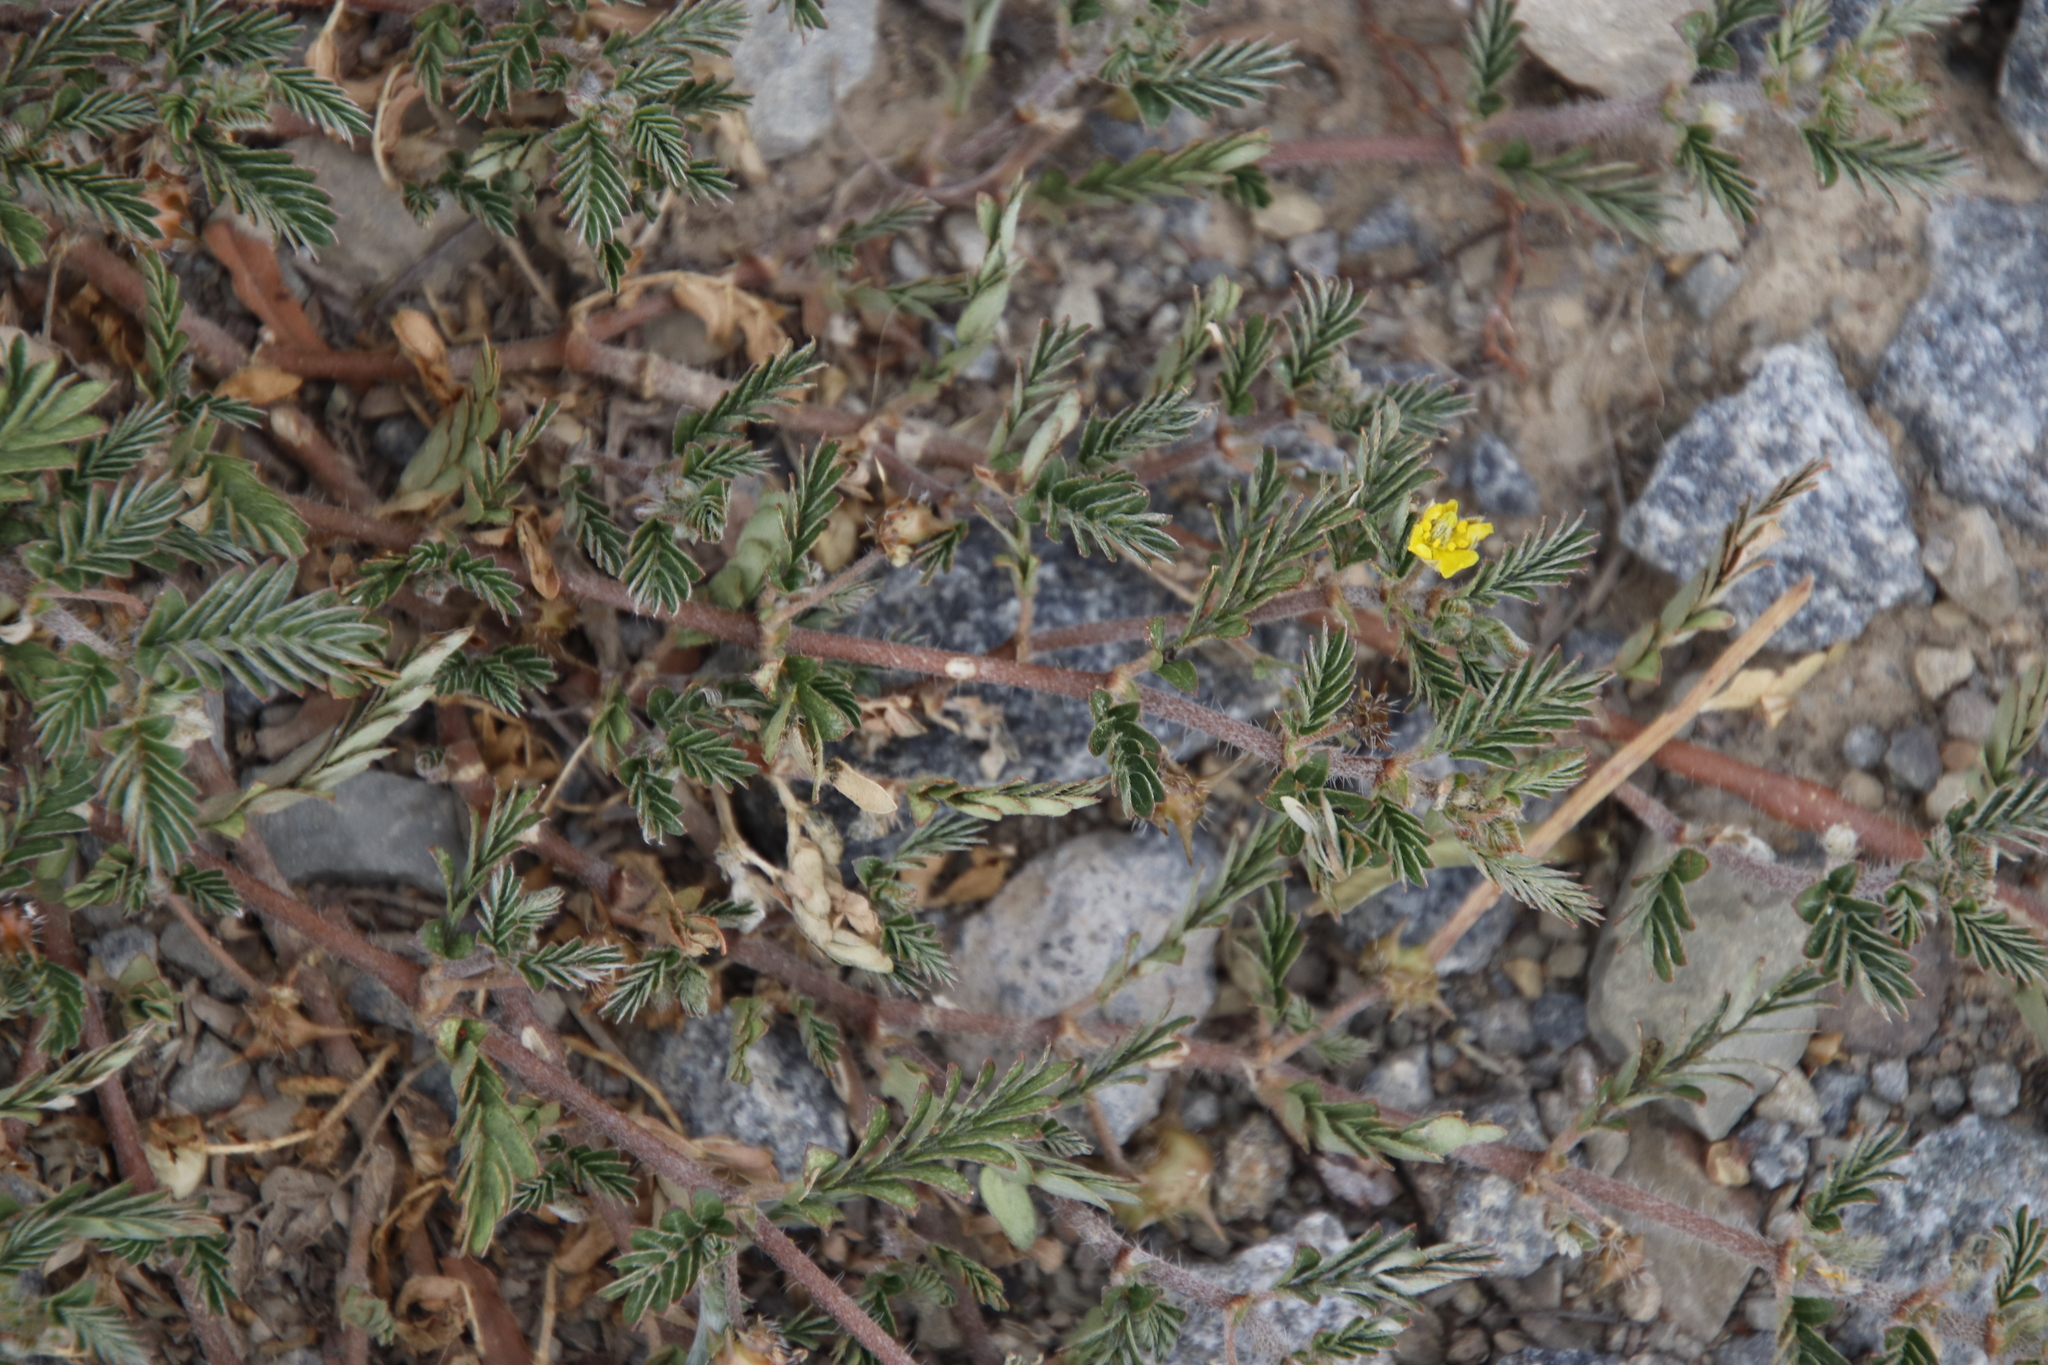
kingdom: Plantae
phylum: Tracheophyta
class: Magnoliopsida
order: Zygophyllales
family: Zygophyllaceae
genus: Tribulus
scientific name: Tribulus terrestris
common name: Puncturevine
